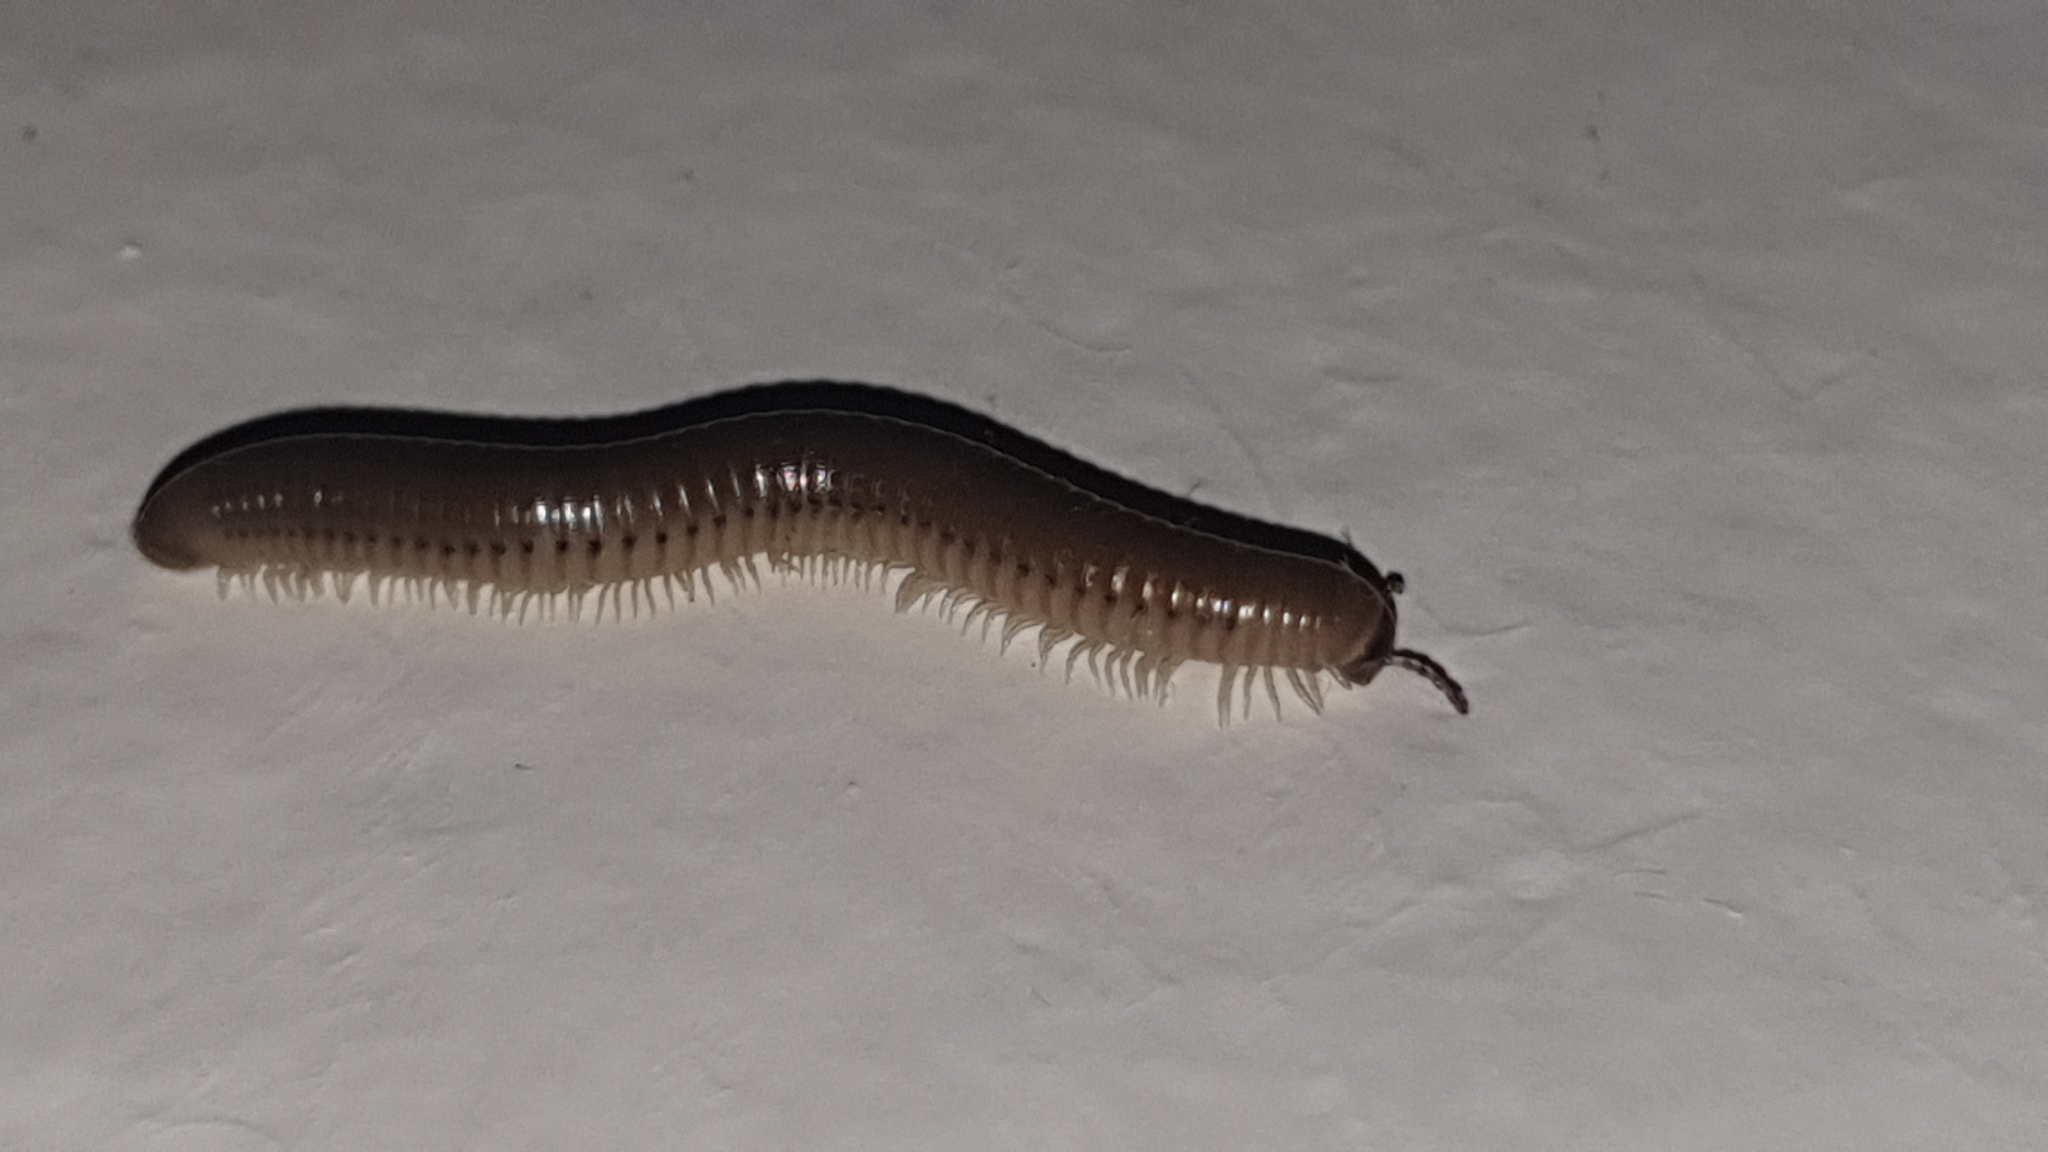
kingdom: Animalia
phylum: Arthropoda
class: Diplopoda
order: Julida
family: Julidae
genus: Pachyiulus
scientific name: Pachyiulus flavipes
